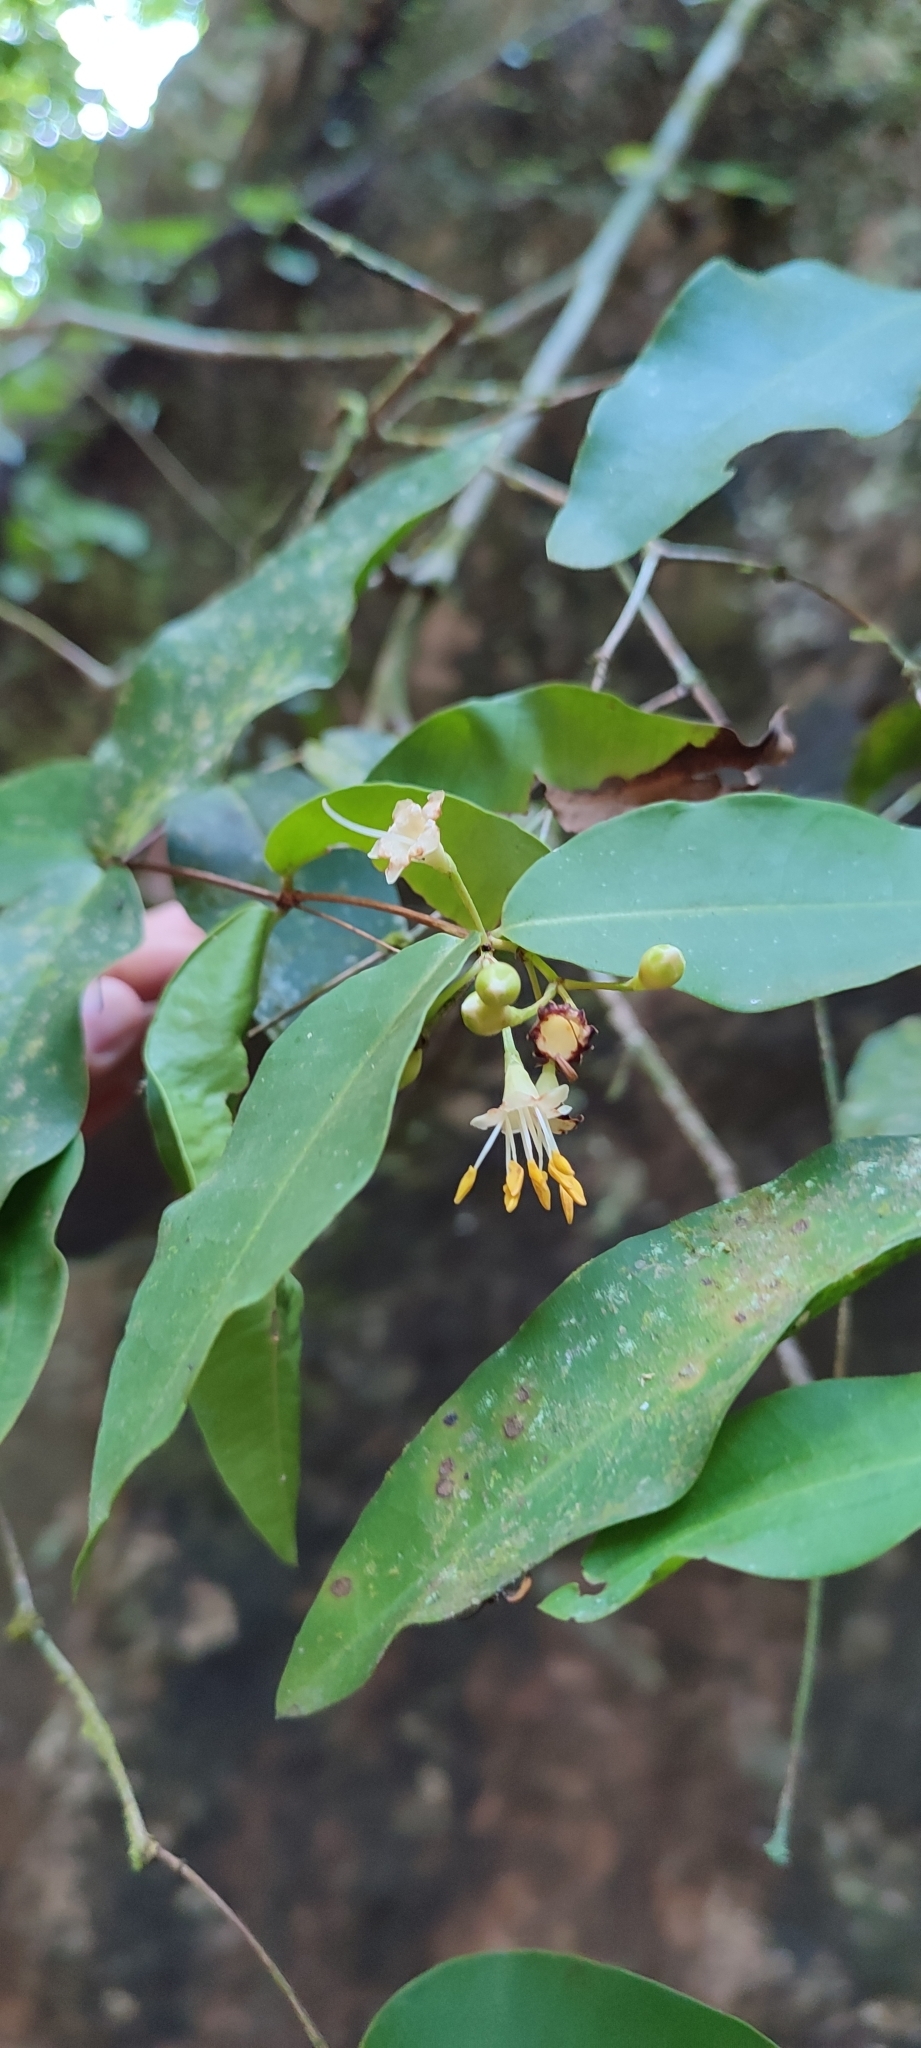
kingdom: Plantae
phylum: Tracheophyta
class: Magnoliopsida
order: Myrtales
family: Melastomataceae
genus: Mouriri
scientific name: Mouriri myrtilloides
